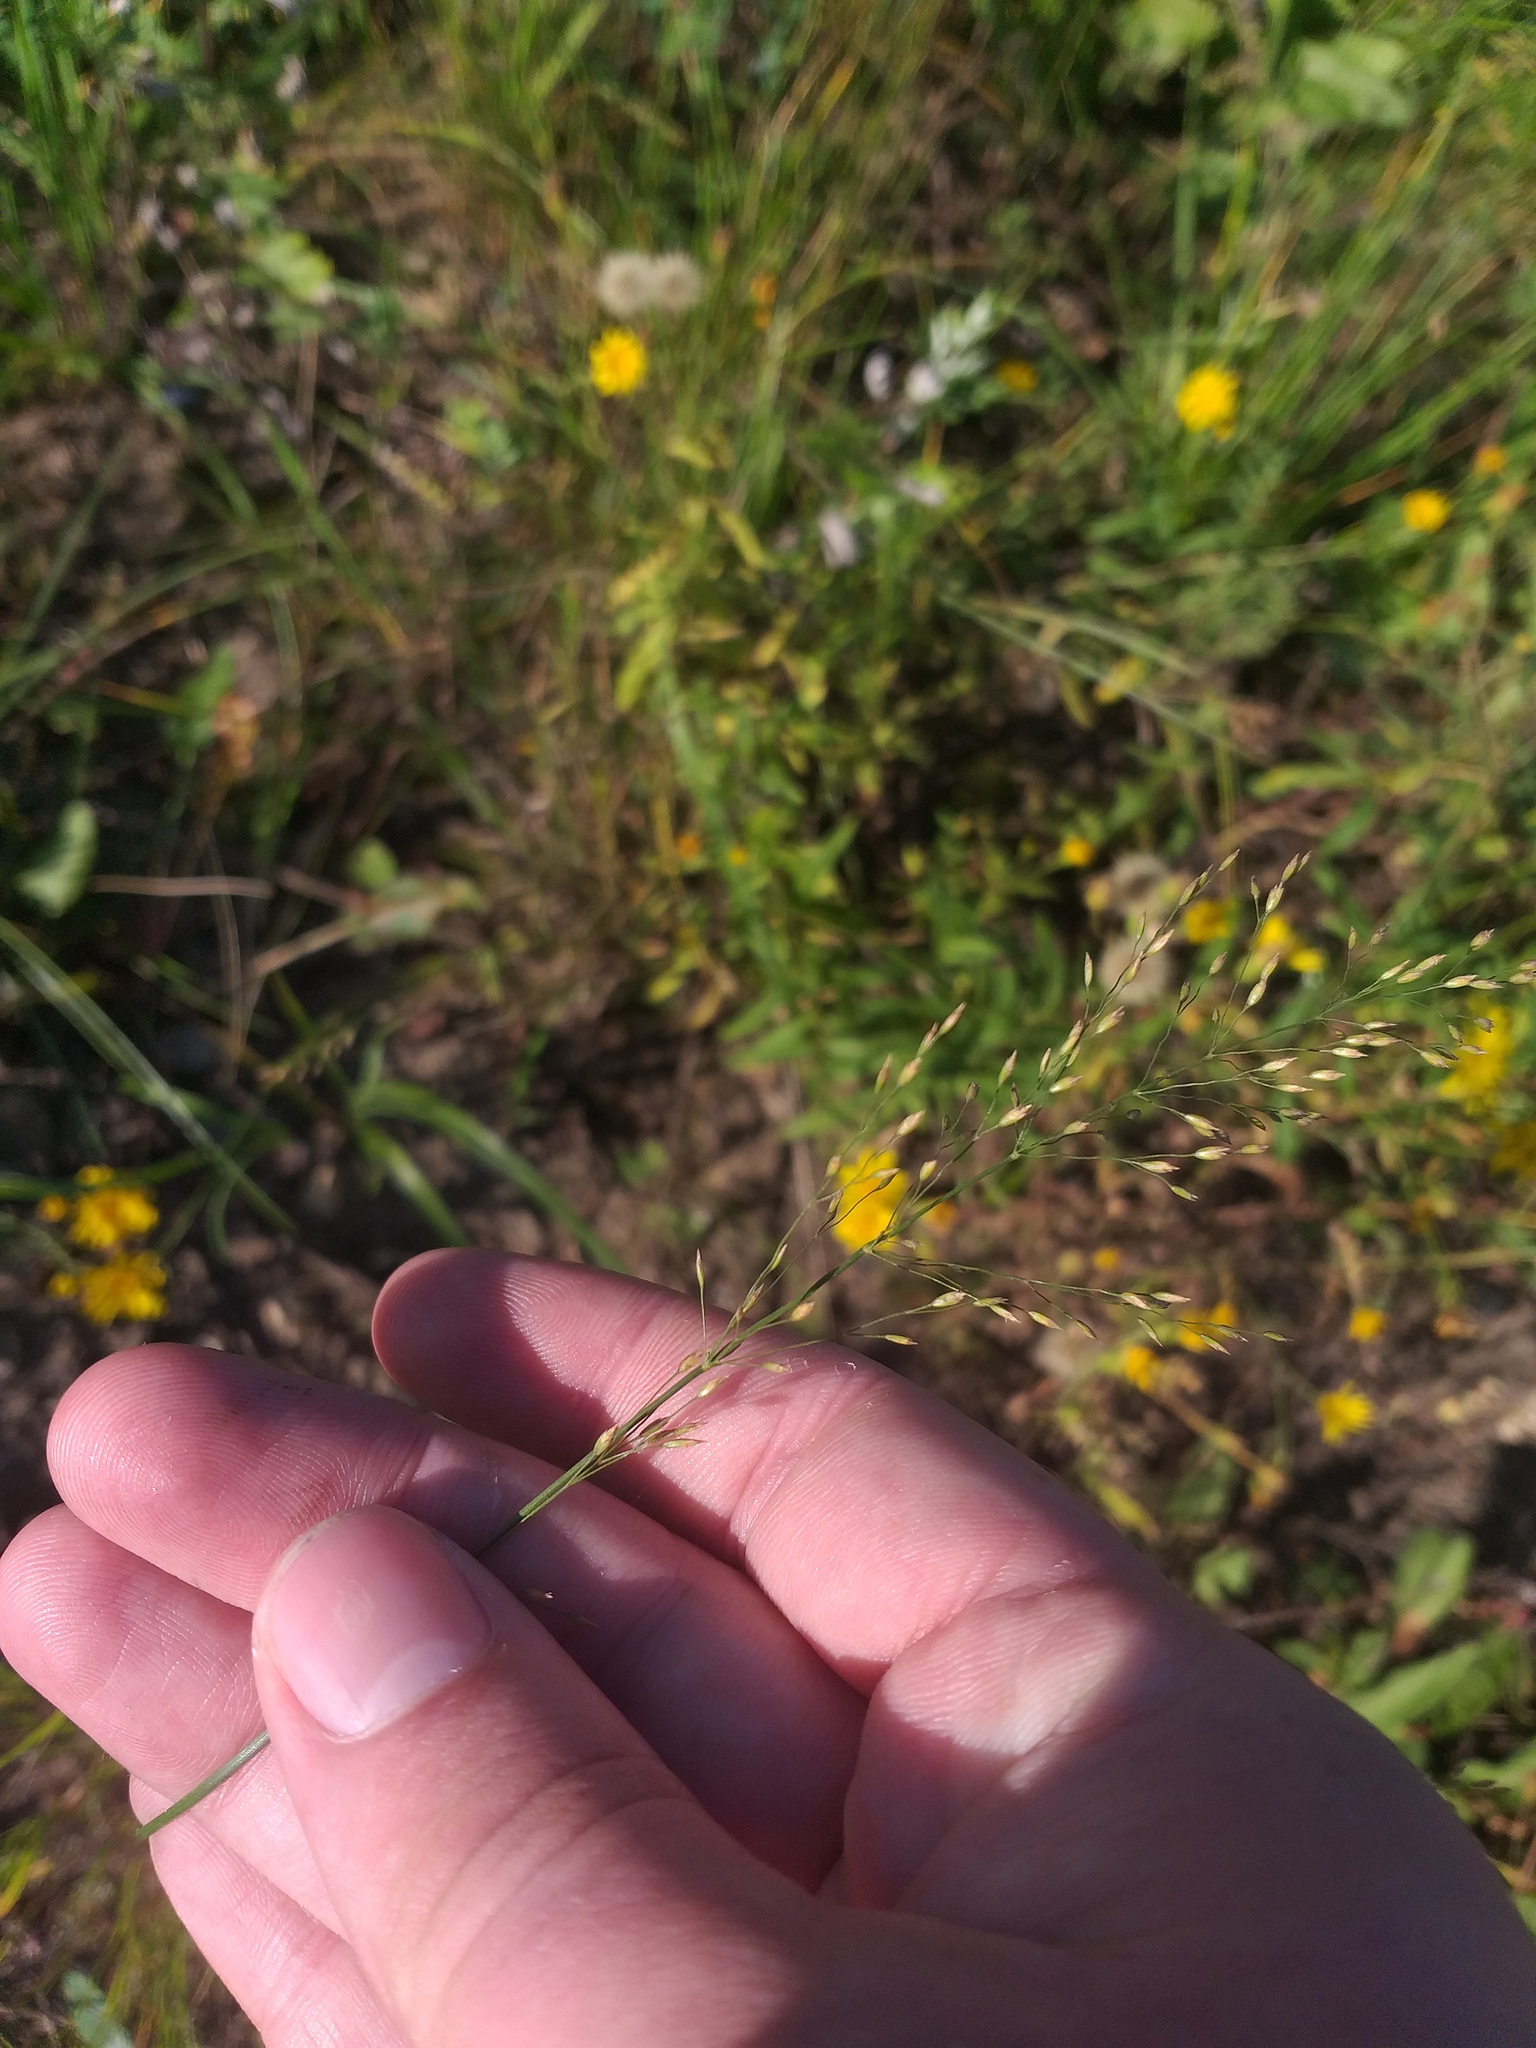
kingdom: Plantae
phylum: Tracheophyta
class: Liliopsida
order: Poales
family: Poaceae
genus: Poa
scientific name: Poa palustris
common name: Swamp meadow-grass
